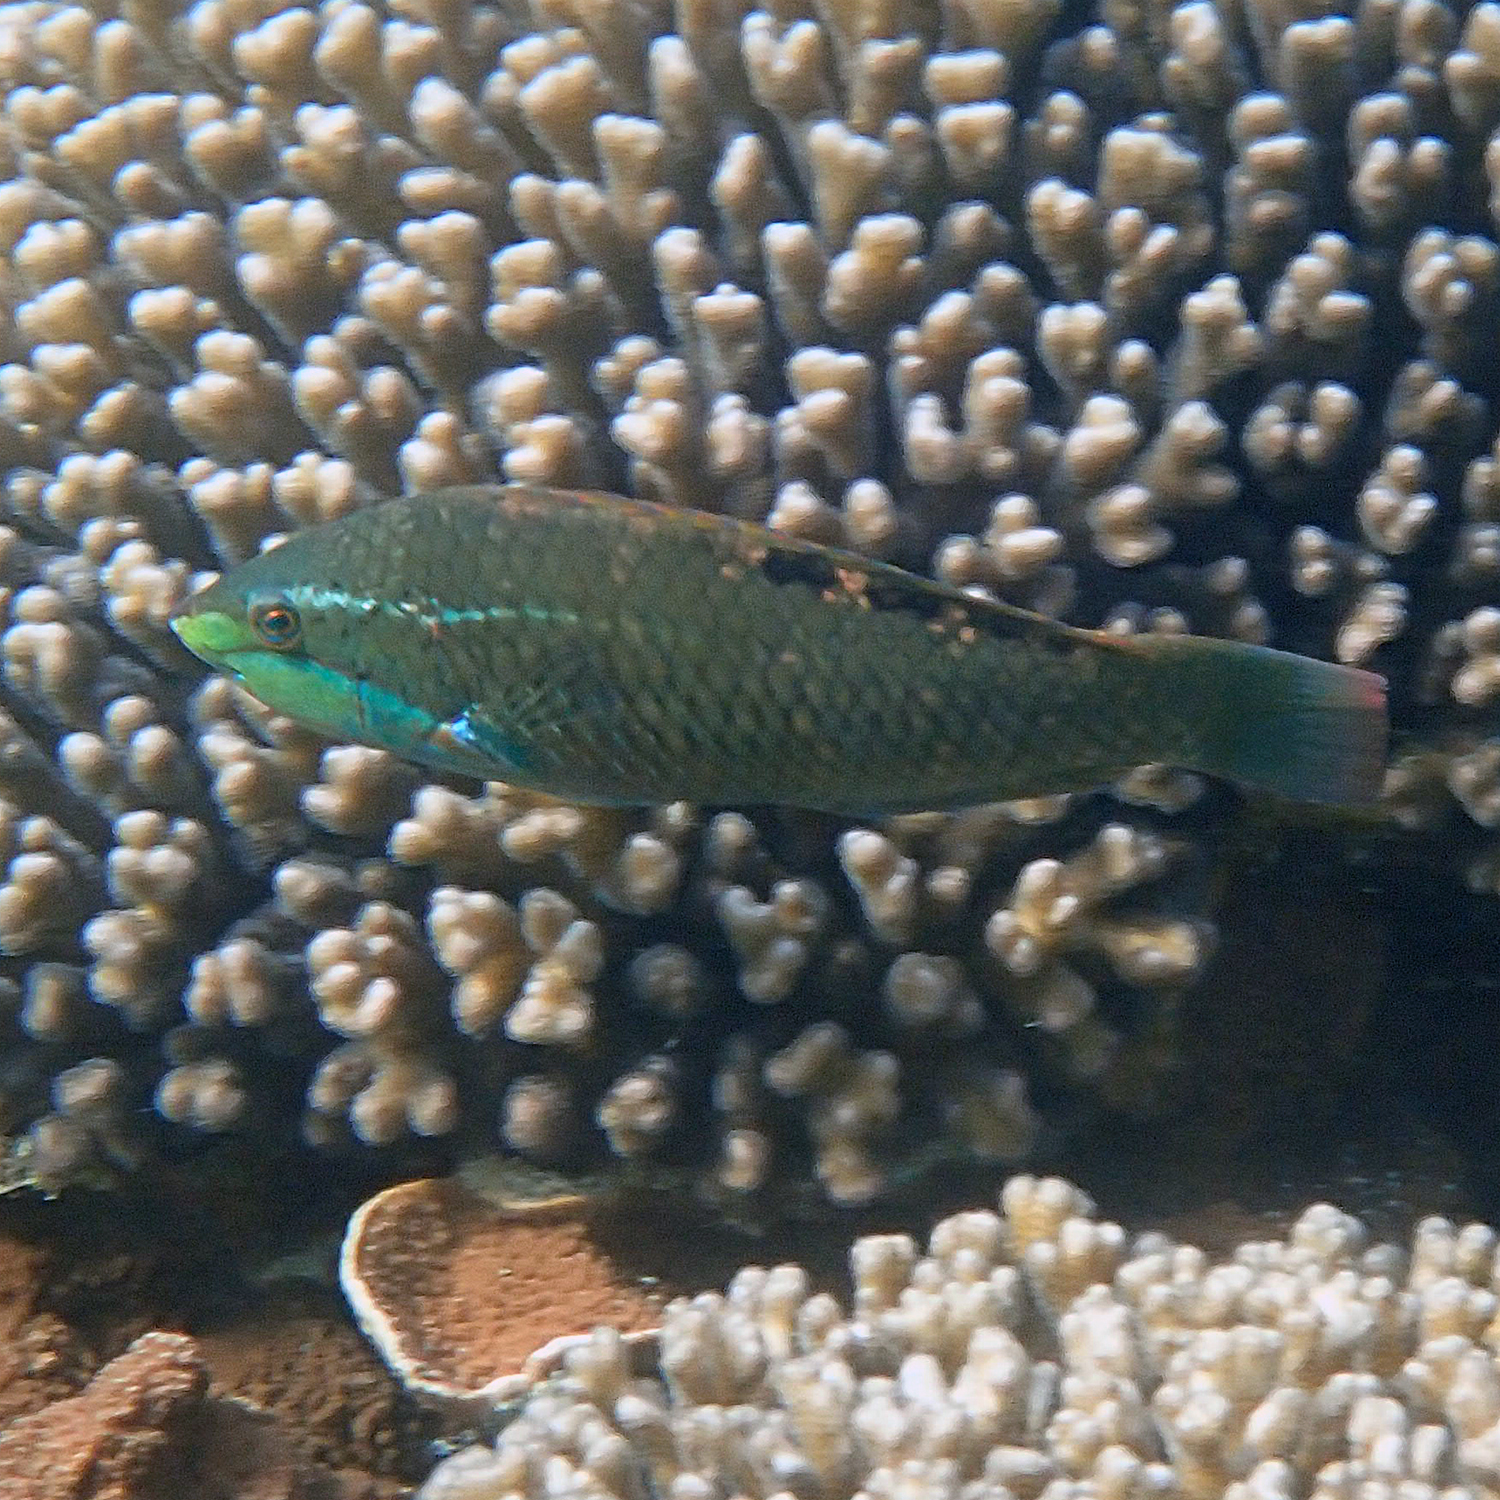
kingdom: Animalia
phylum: Chordata
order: Perciformes
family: Labridae
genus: Pseudolabrus
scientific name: Pseudolabrus luculentus
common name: Luculentus wrasse
